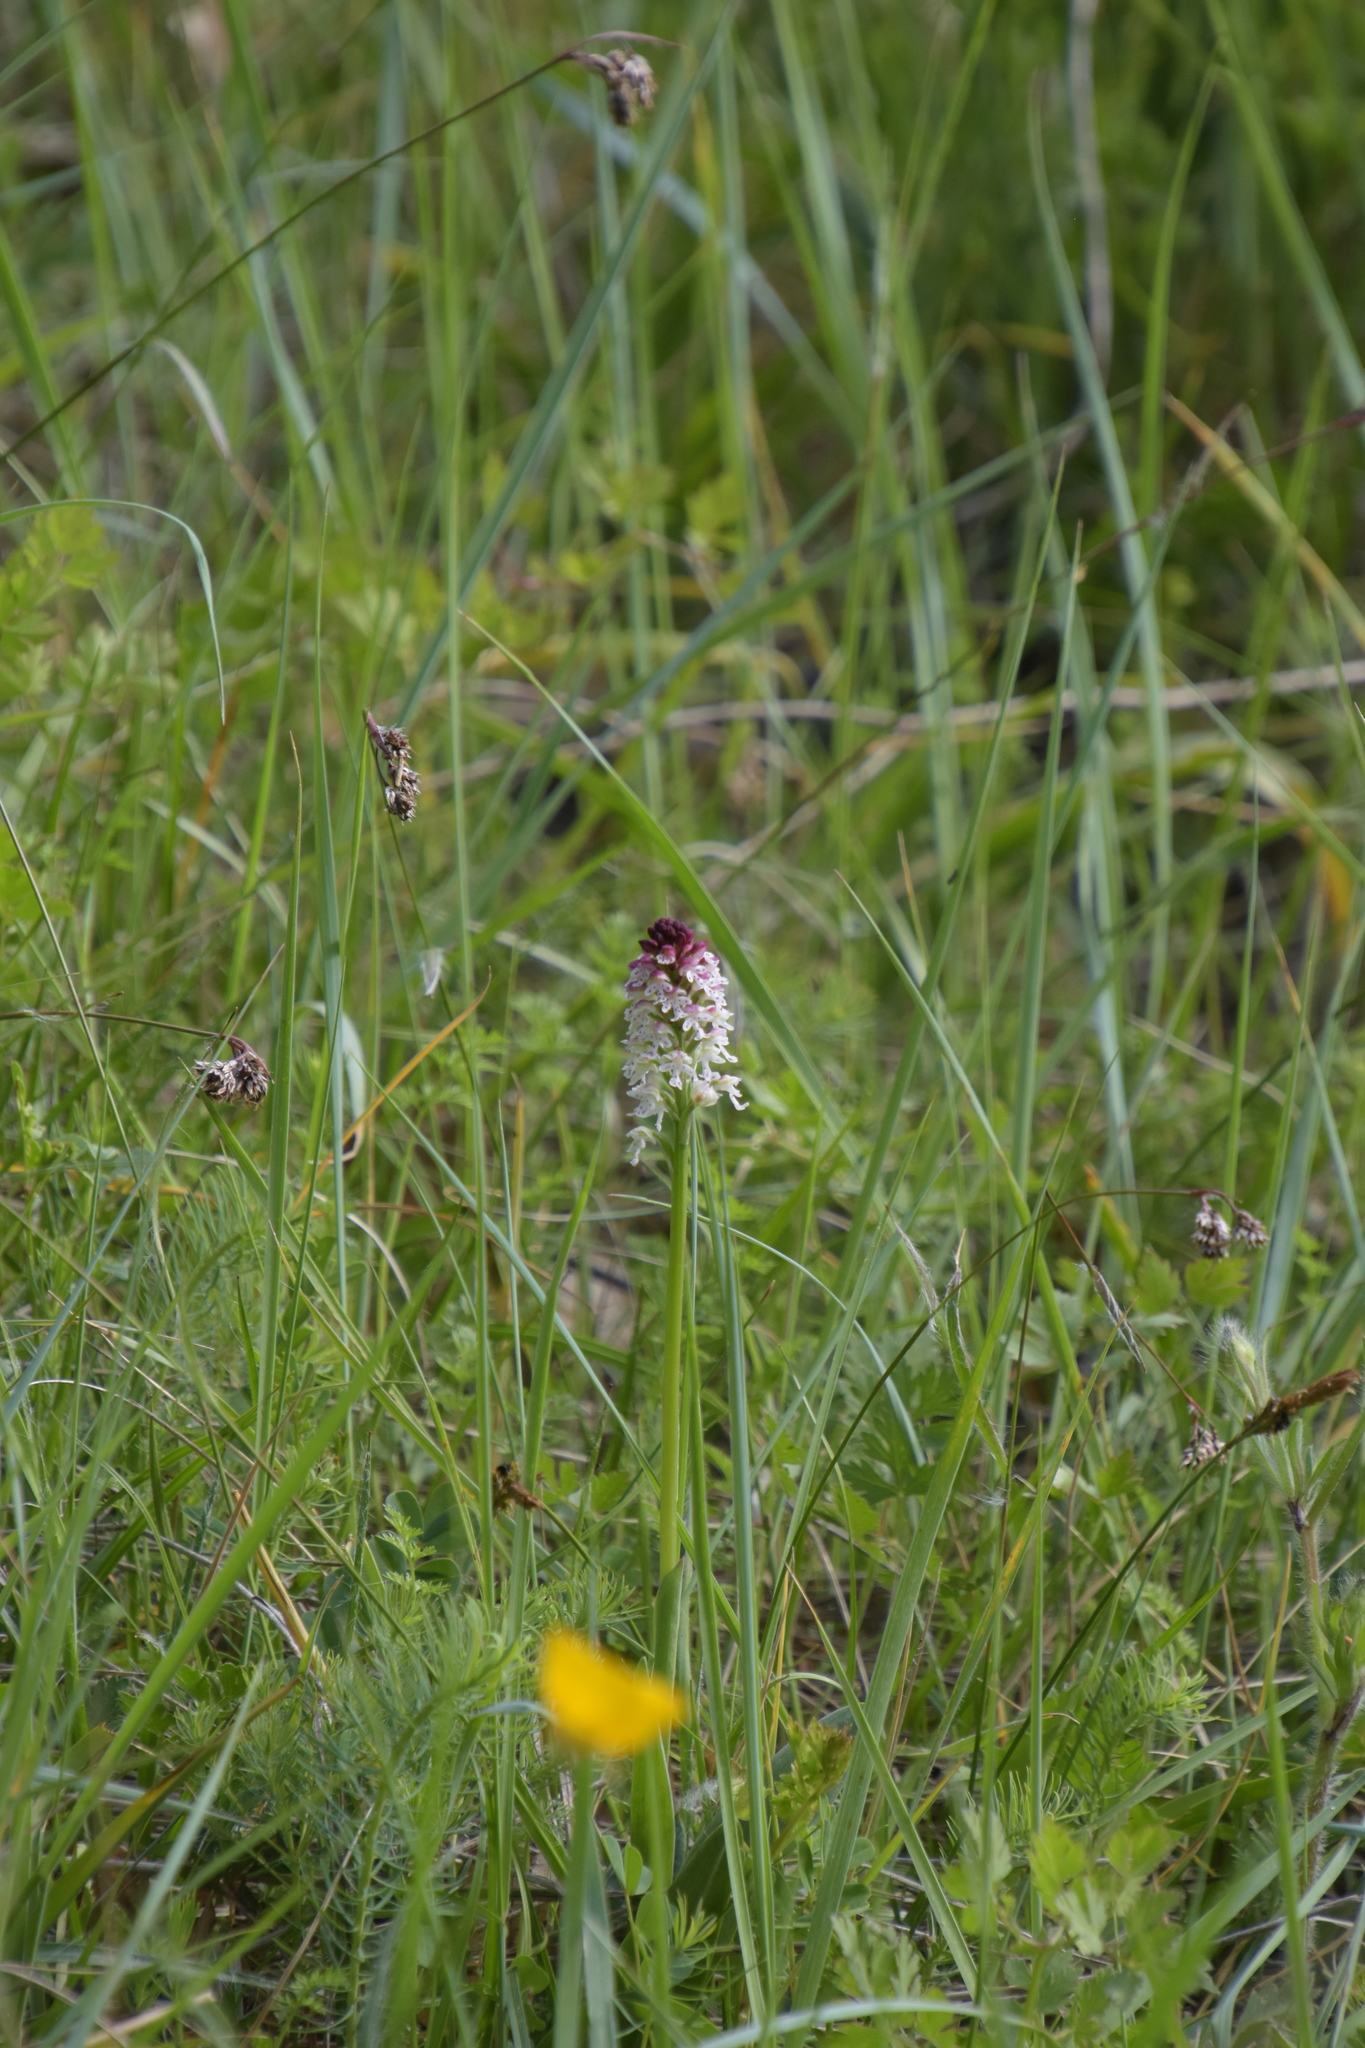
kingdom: Plantae
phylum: Tracheophyta
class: Liliopsida
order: Asparagales
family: Orchidaceae
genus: Neotinea
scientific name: Neotinea ustulata
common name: Burnt orchid
